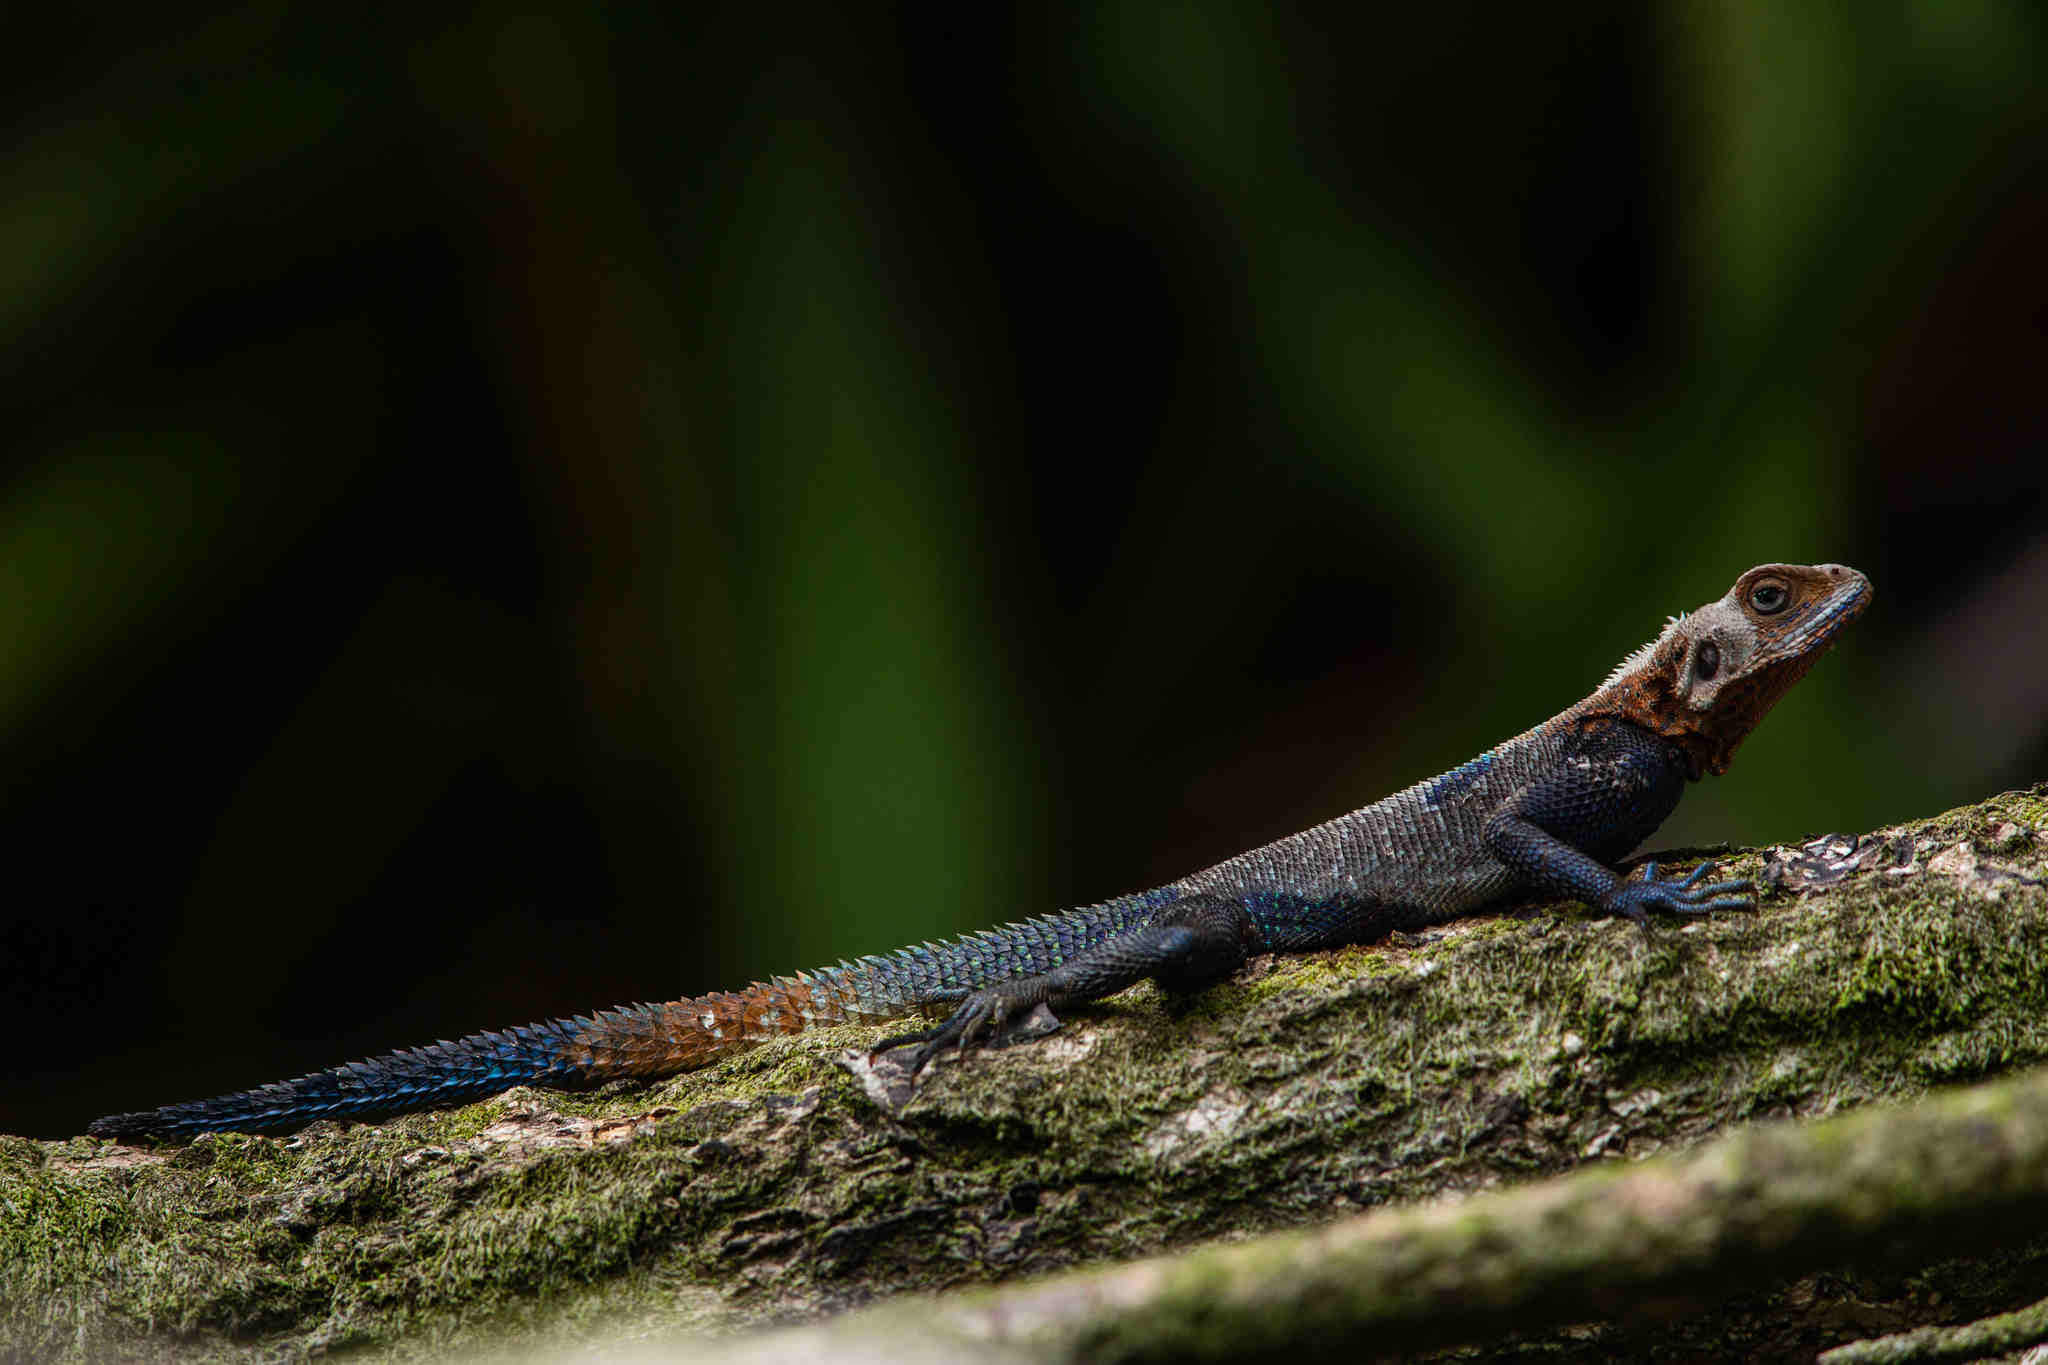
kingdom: Animalia
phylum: Chordata
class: Squamata
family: Agamidae
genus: Agama
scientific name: Agama lebretoni
